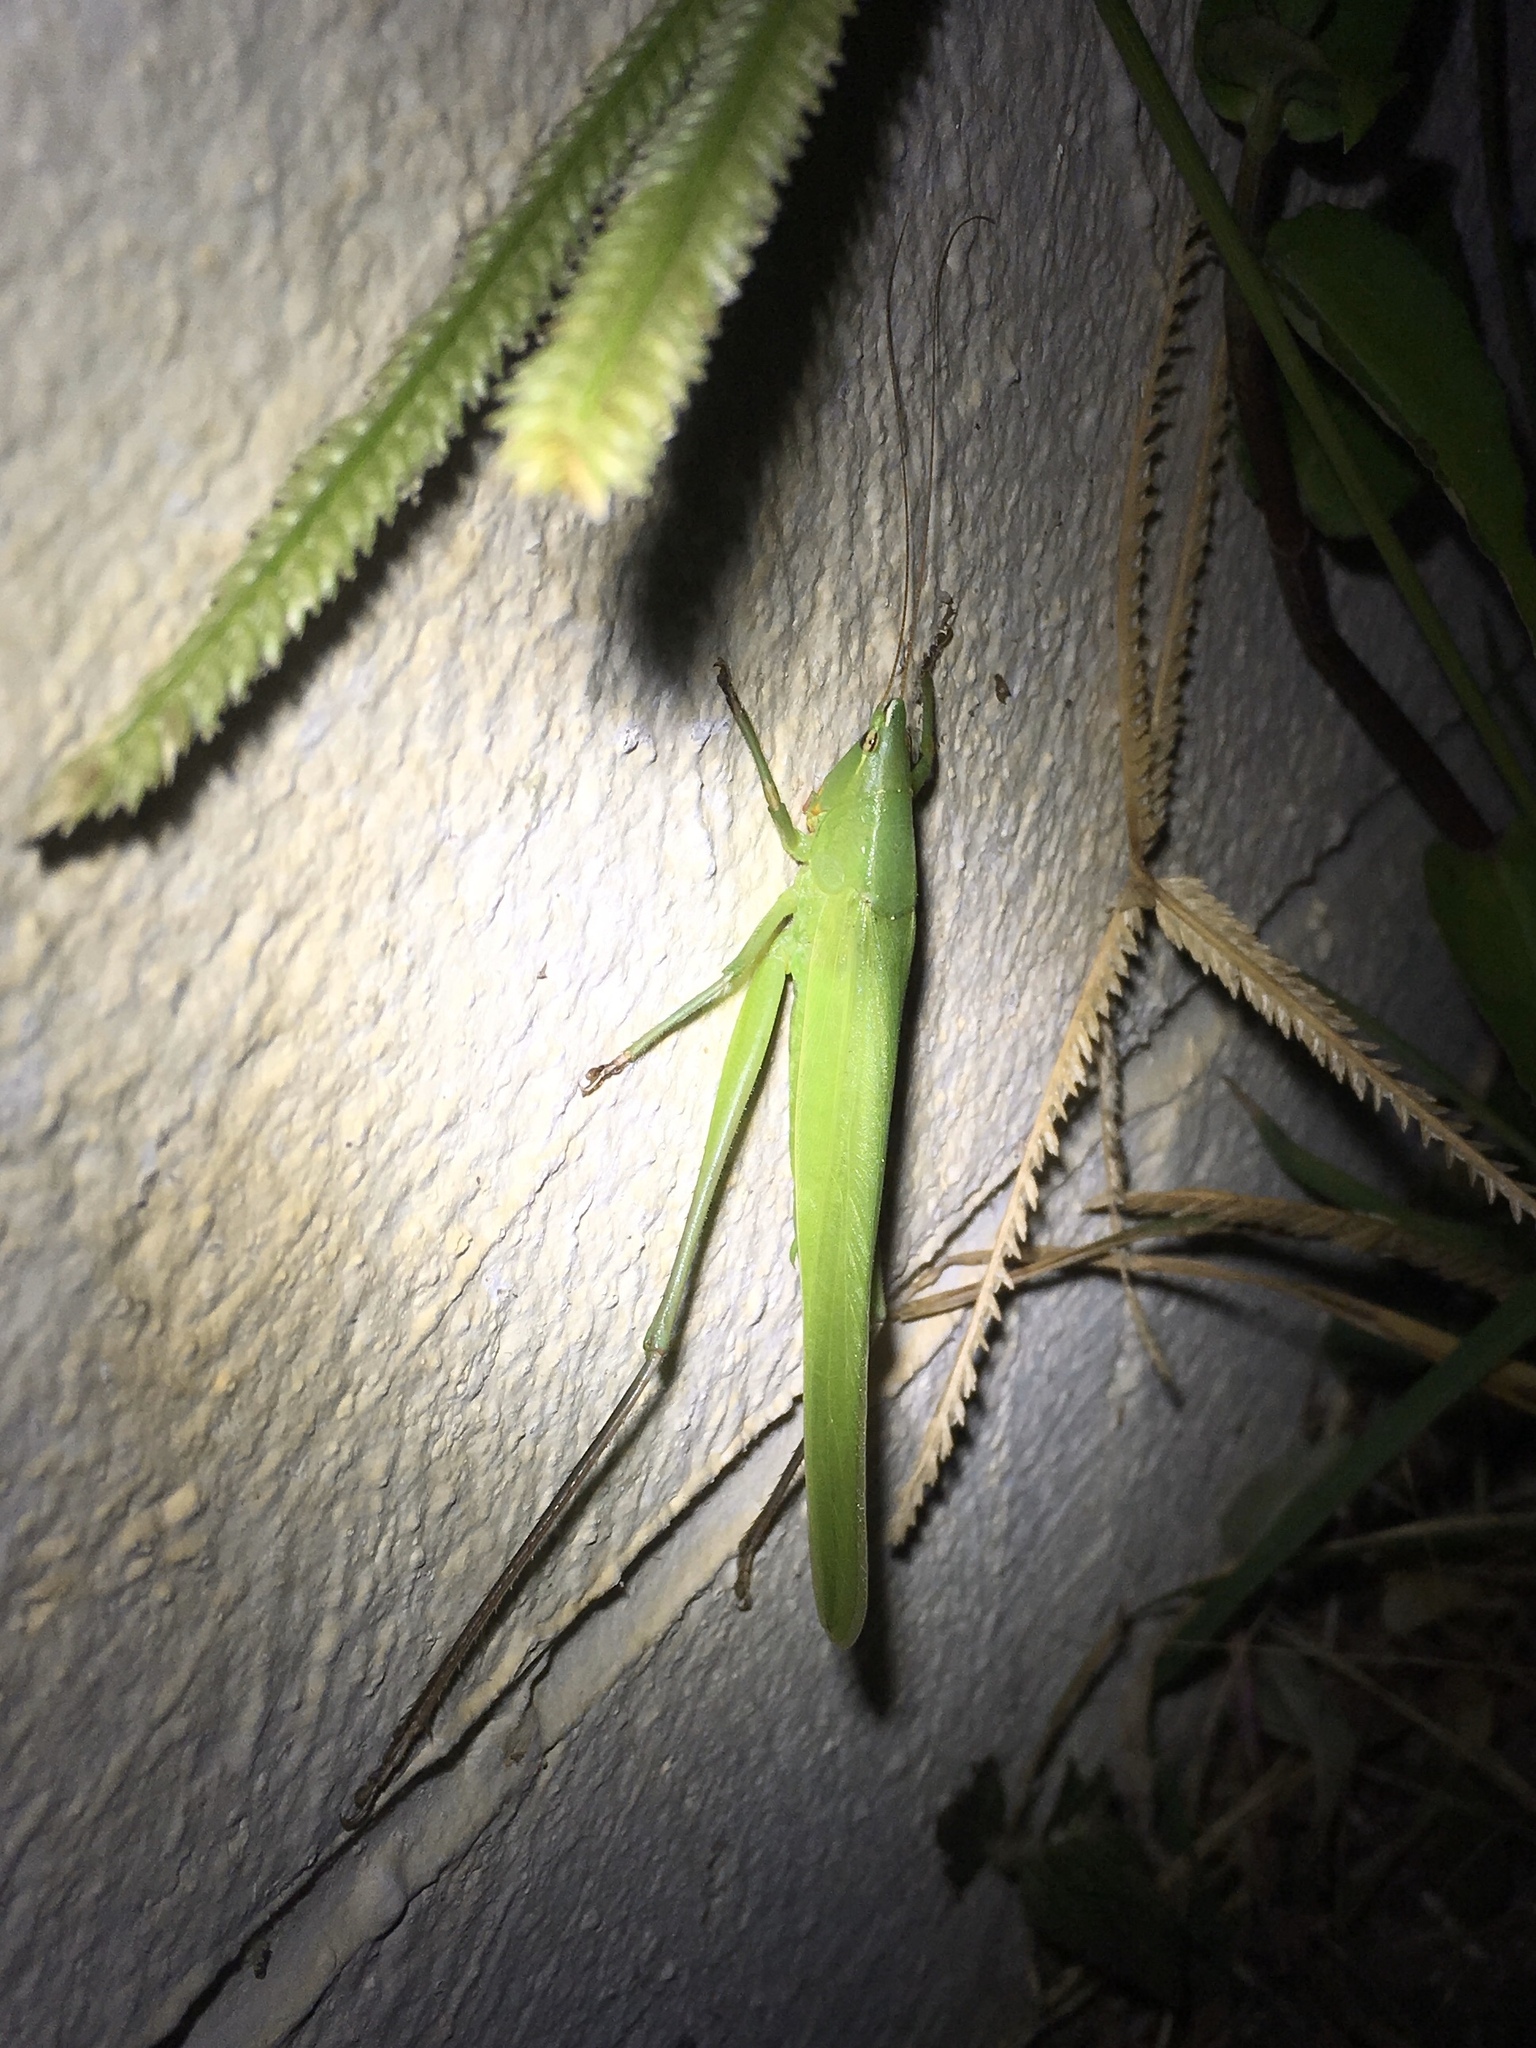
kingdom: Animalia
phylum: Arthropoda
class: Insecta
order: Orthoptera
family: Tettigoniidae
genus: Neoconocephalus
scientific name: Neoconocephalus triops
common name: Broad-tipped conehead
